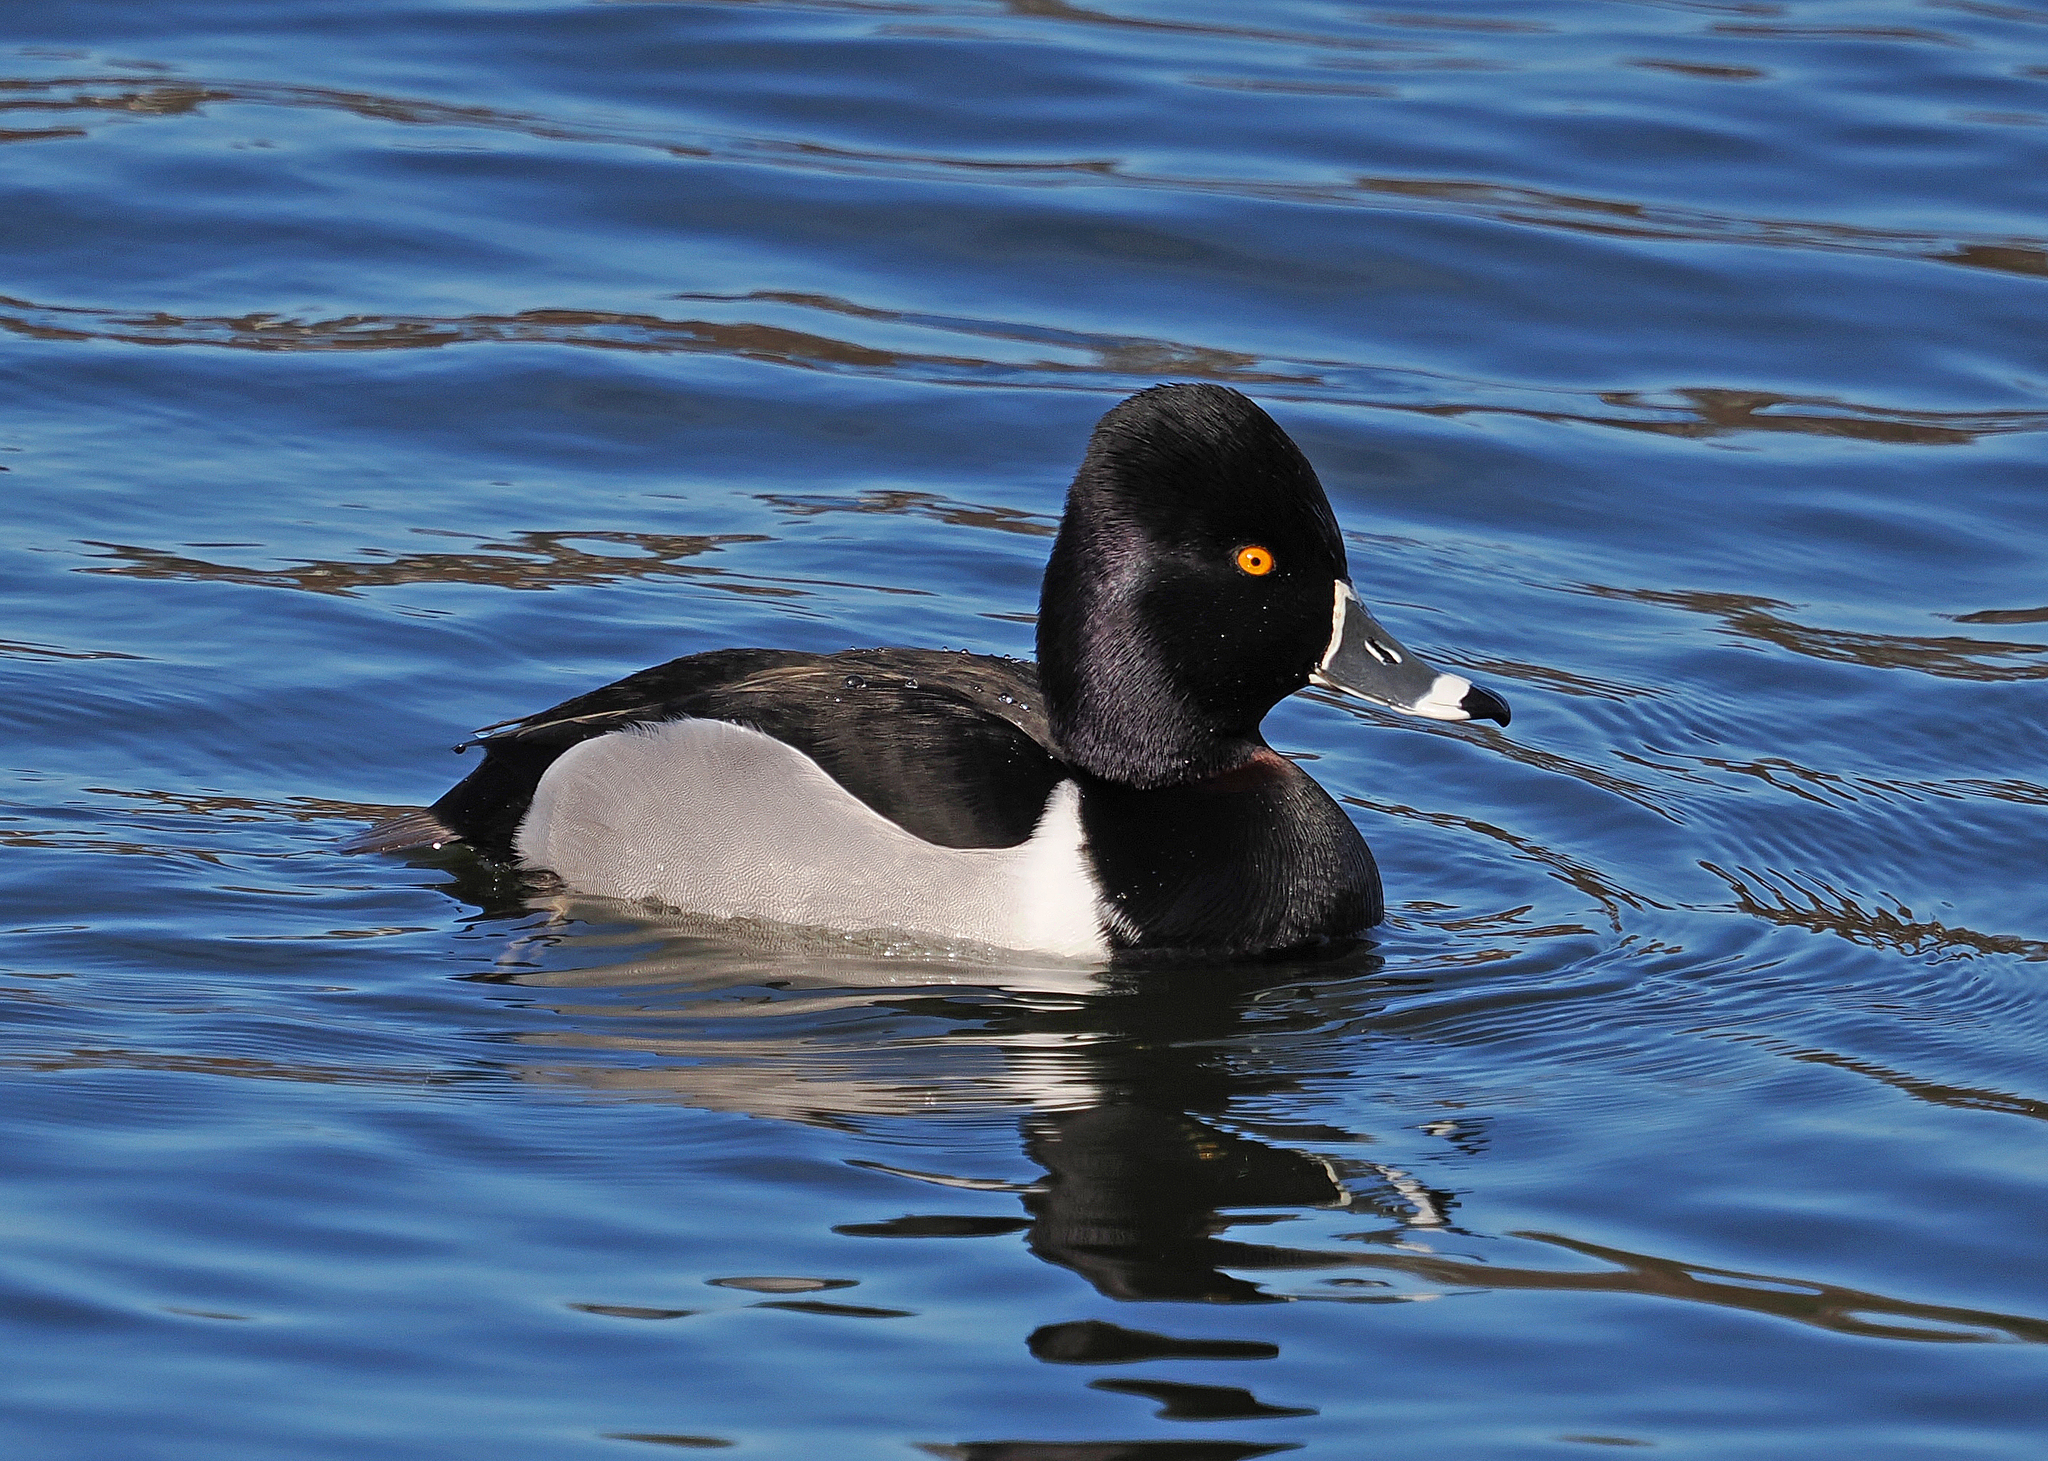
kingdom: Animalia
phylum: Chordata
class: Aves
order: Anseriformes
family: Anatidae
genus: Aythya
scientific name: Aythya collaris
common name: Ring-necked duck
